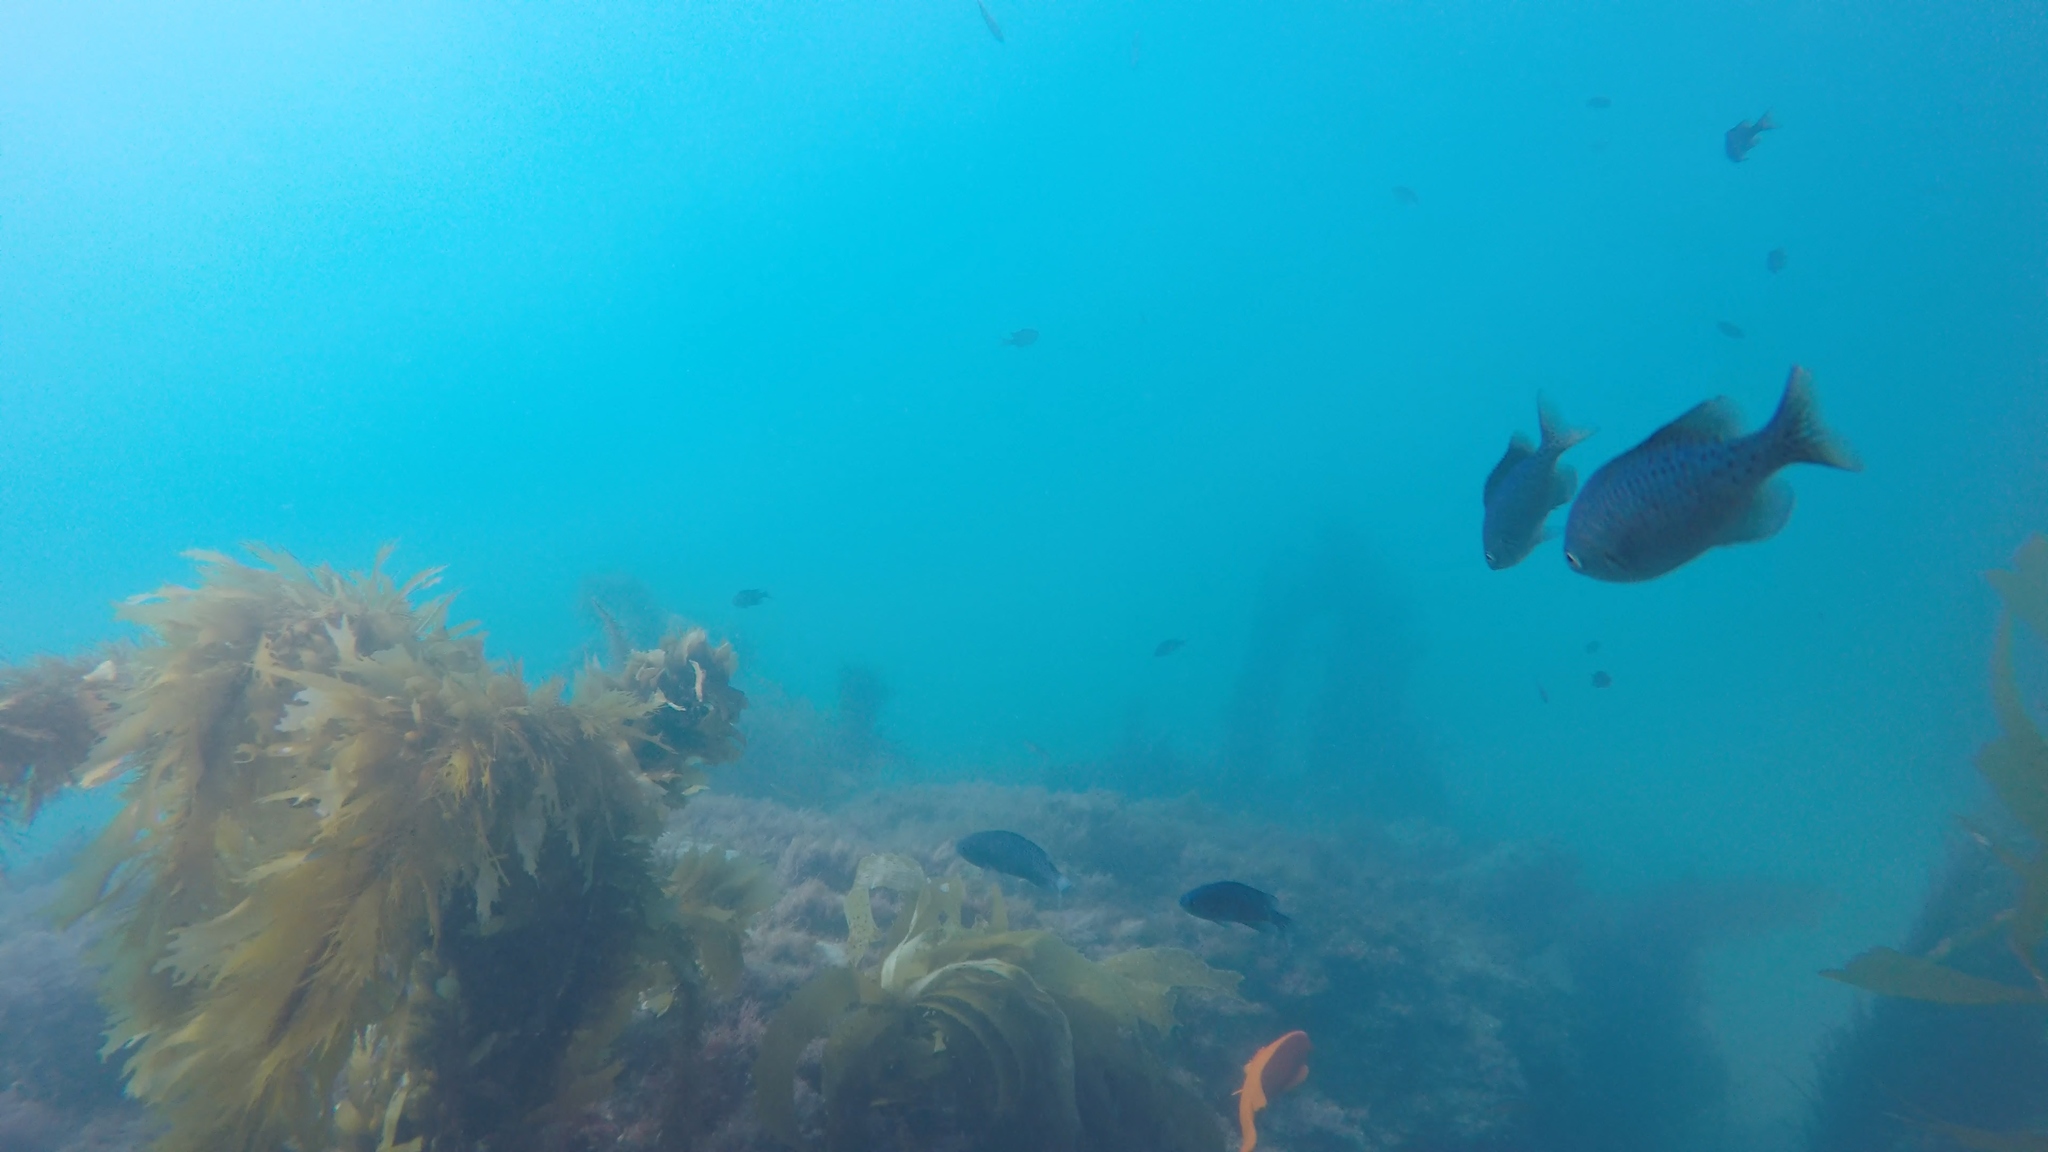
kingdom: Animalia
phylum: Chordata
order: Perciformes
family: Pomacentridae
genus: Chromis
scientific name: Chromis punctipinnis
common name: Blacksmith
